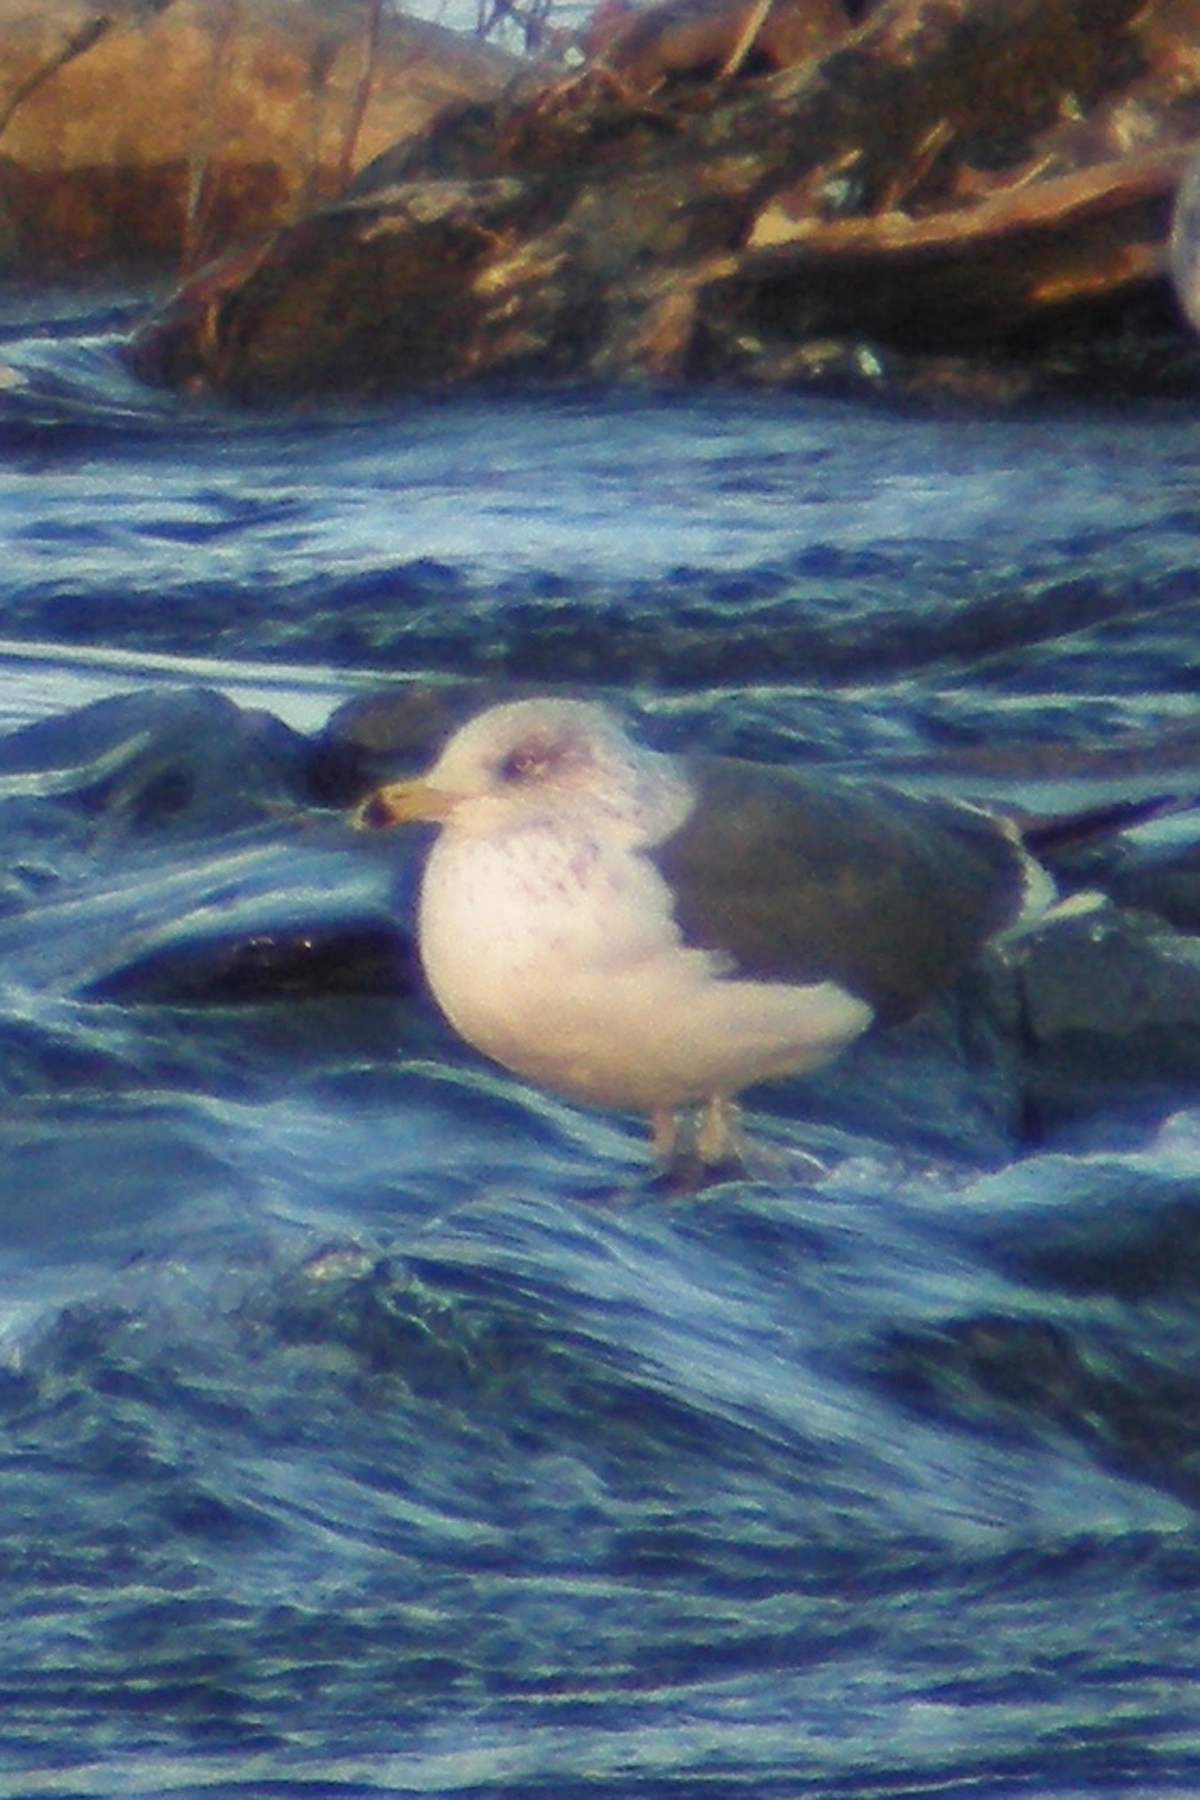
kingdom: Animalia
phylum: Chordata
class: Aves
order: Charadriiformes
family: Laridae
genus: Larus
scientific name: Larus fuscus
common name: Lesser black-backed gull
